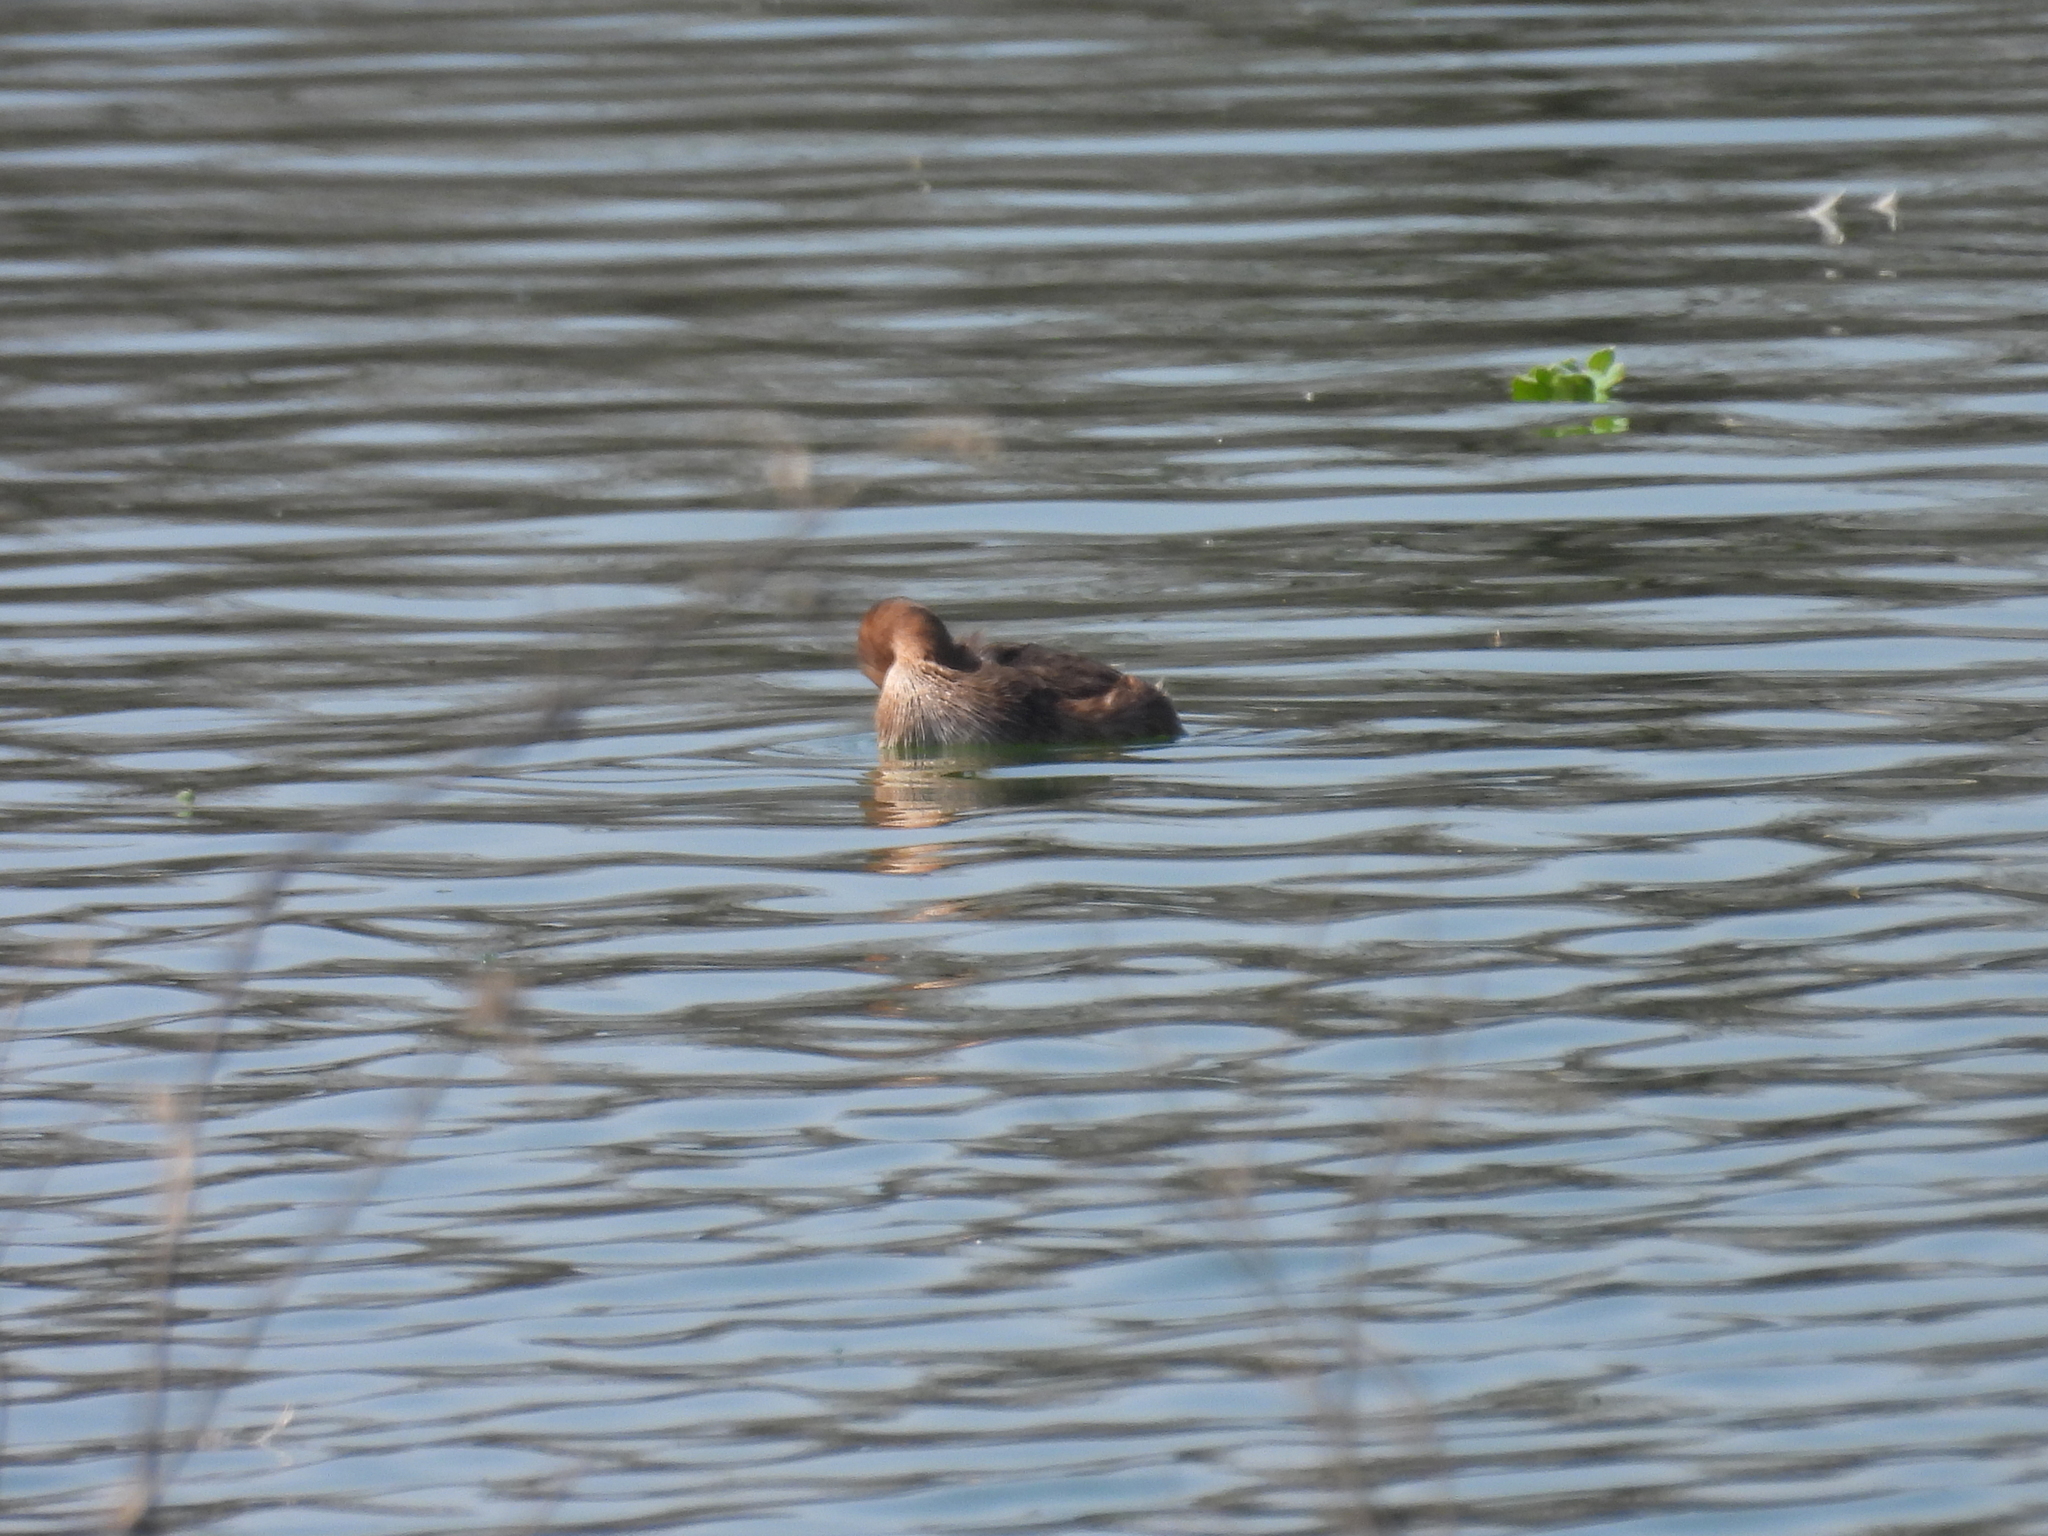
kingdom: Animalia
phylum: Chordata
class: Aves
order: Podicipediformes
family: Podicipedidae
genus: Tachybaptus
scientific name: Tachybaptus ruficollis
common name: Little grebe
